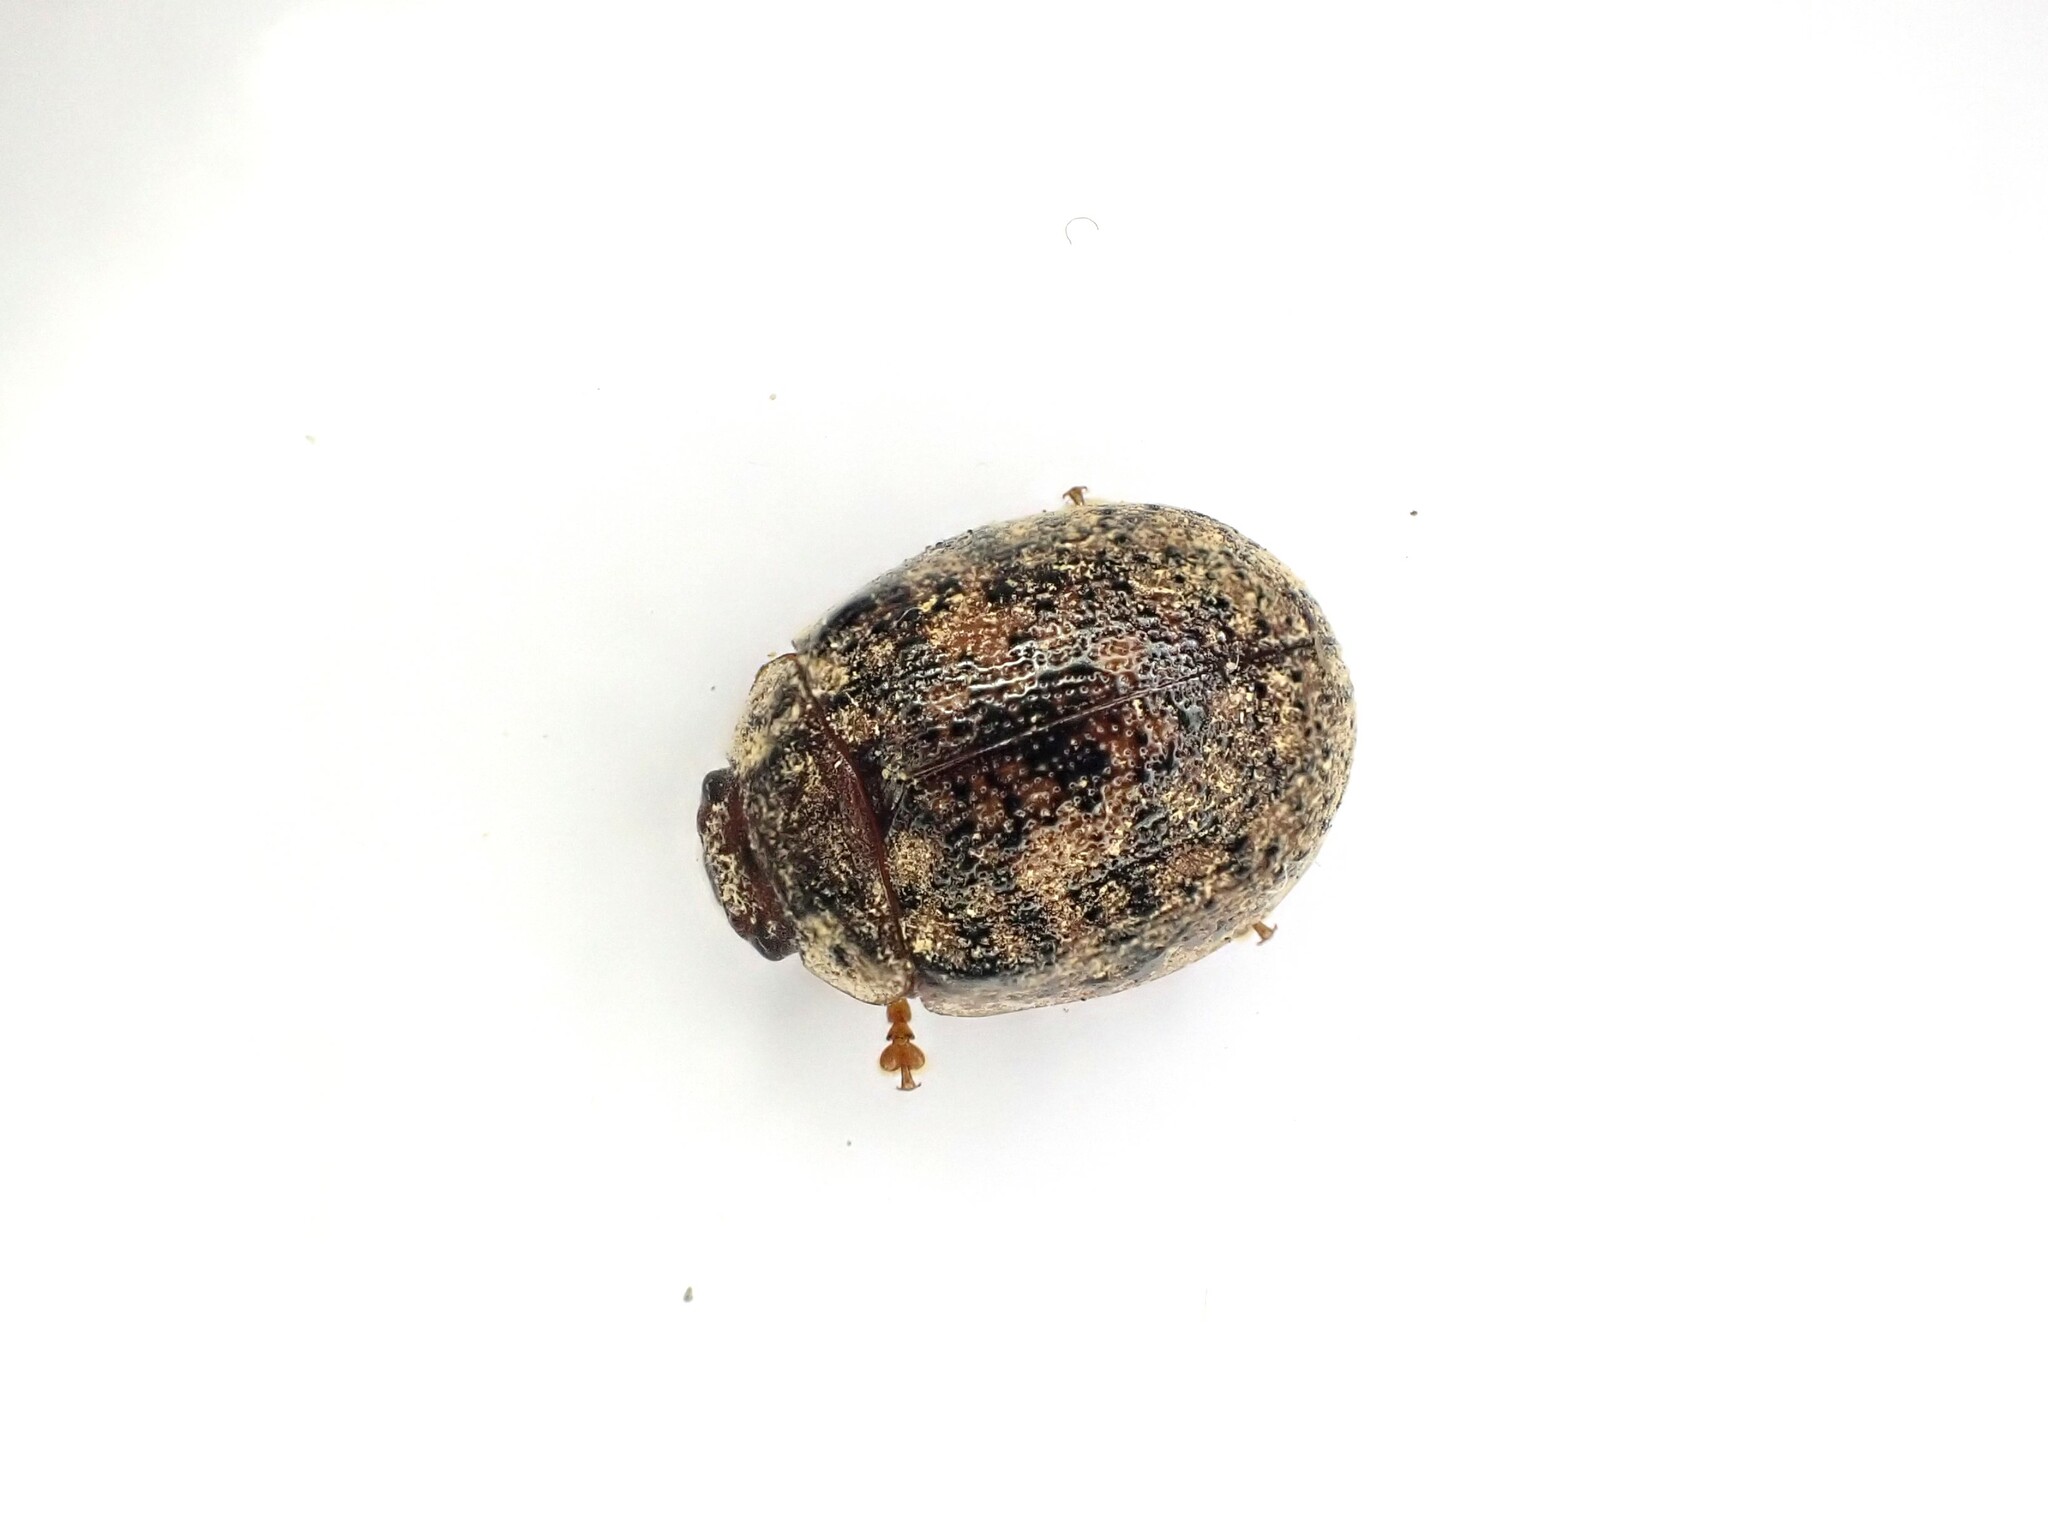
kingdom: Animalia
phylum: Arthropoda
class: Insecta
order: Coleoptera
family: Chrysomelidae
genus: Trachymela
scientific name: Trachymela sloanei
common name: Australian tortoise beetle
